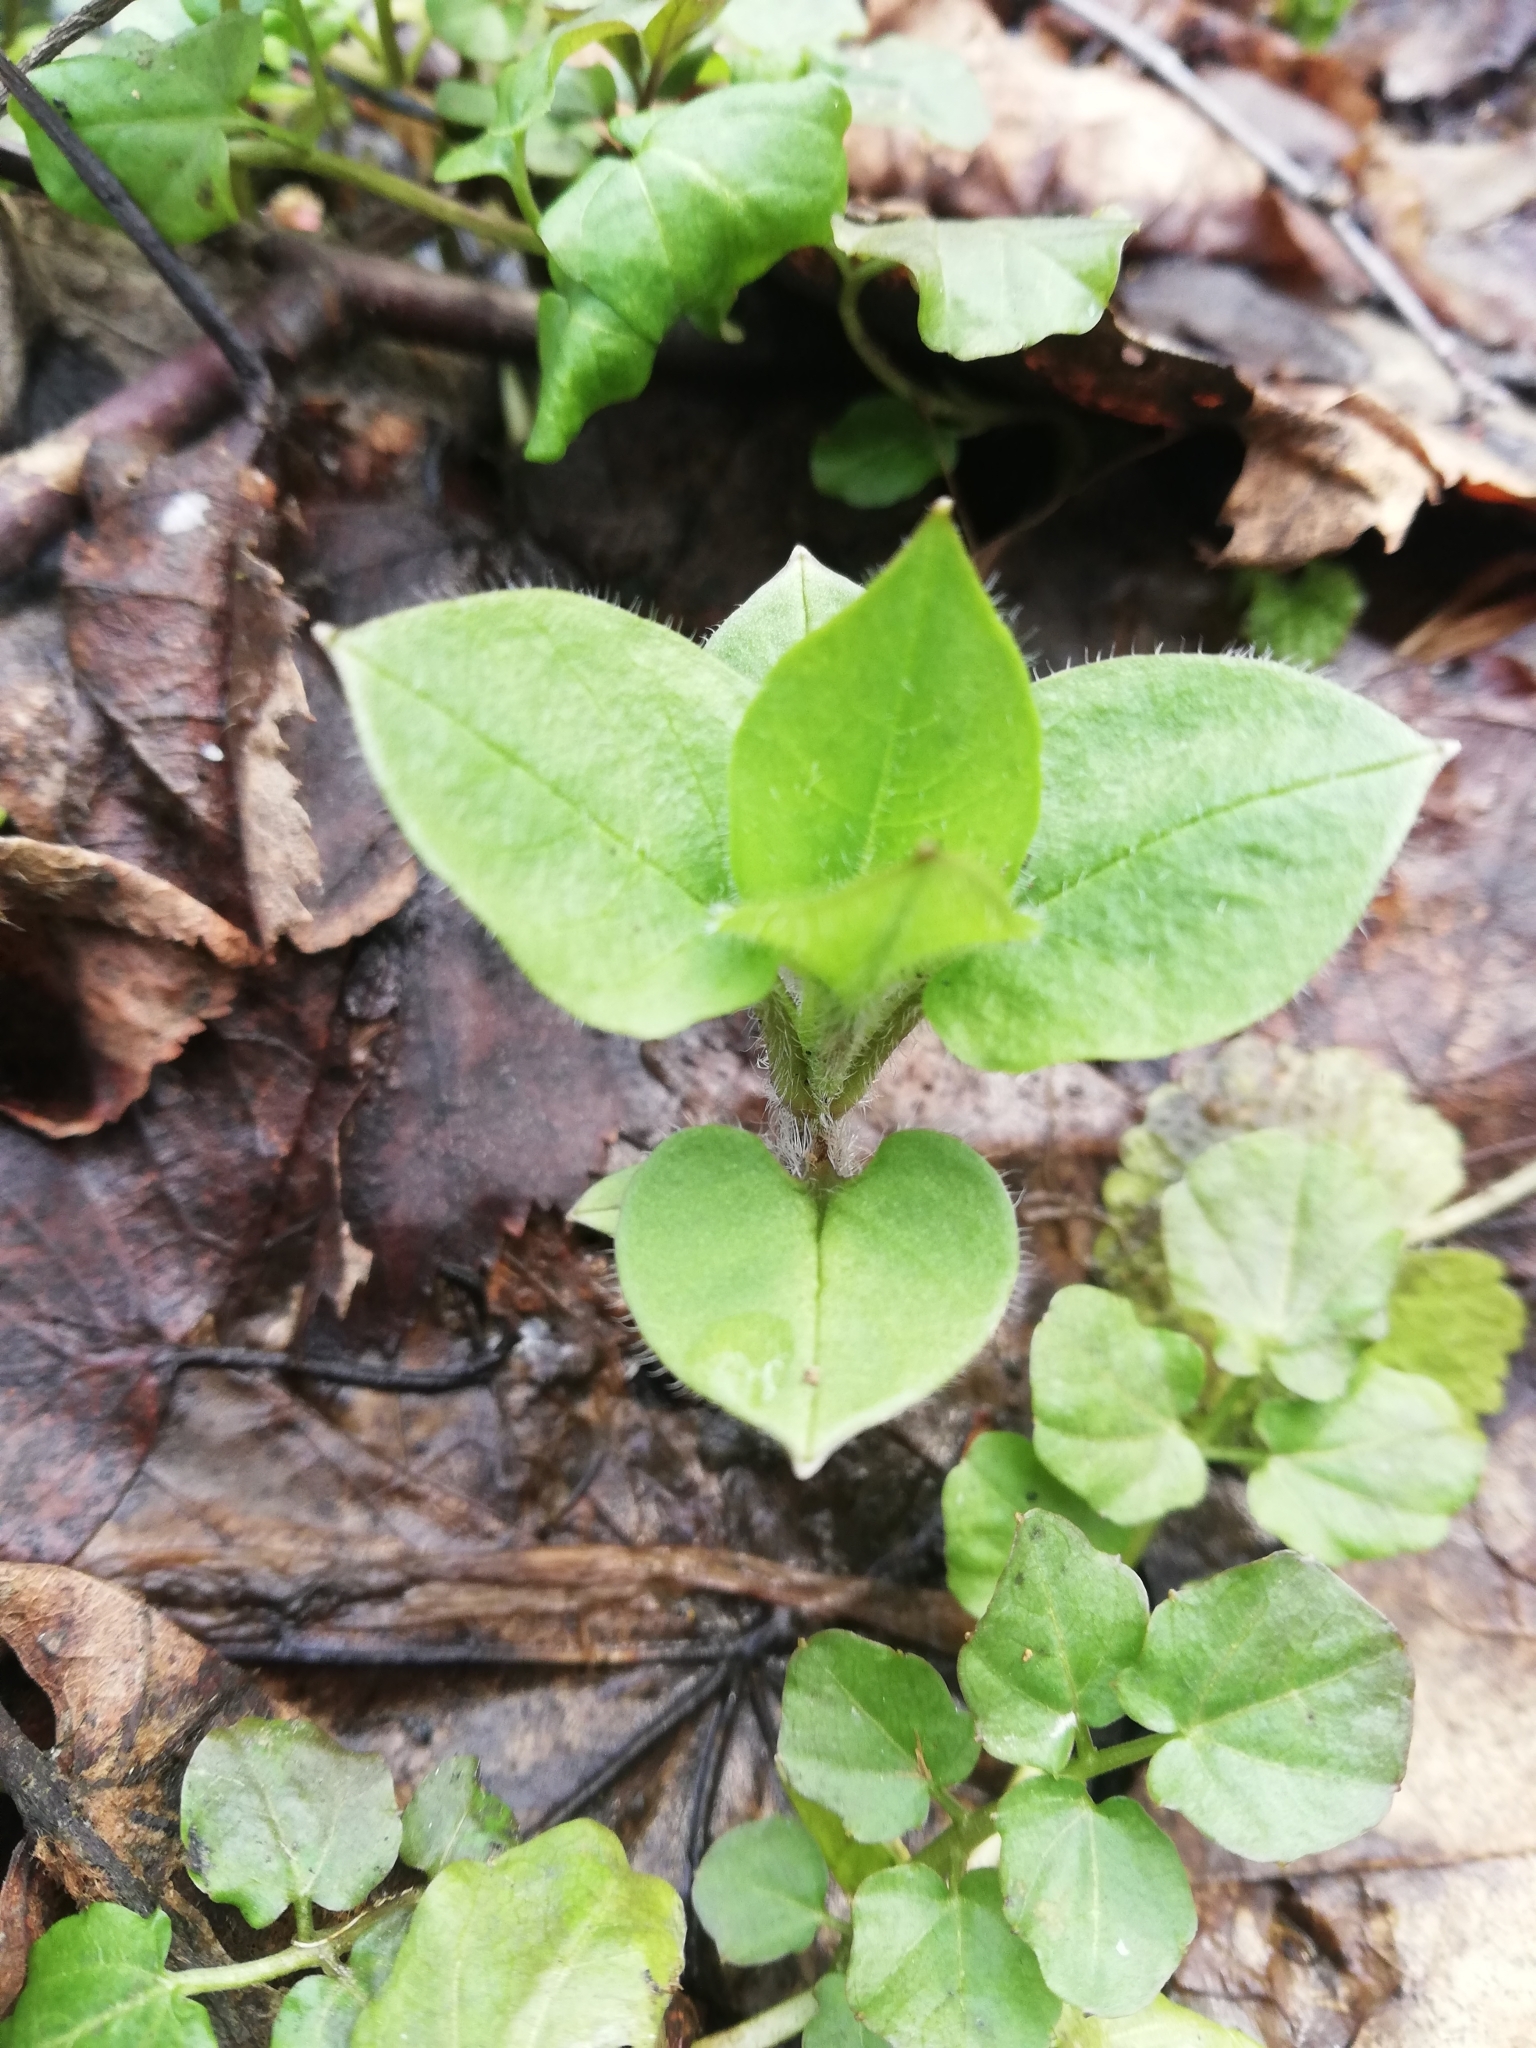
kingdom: Plantae
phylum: Tracheophyta
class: Magnoliopsida
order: Caryophyllales
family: Caryophyllaceae
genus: Stellaria
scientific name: Stellaria aquatica
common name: Water chickweed
